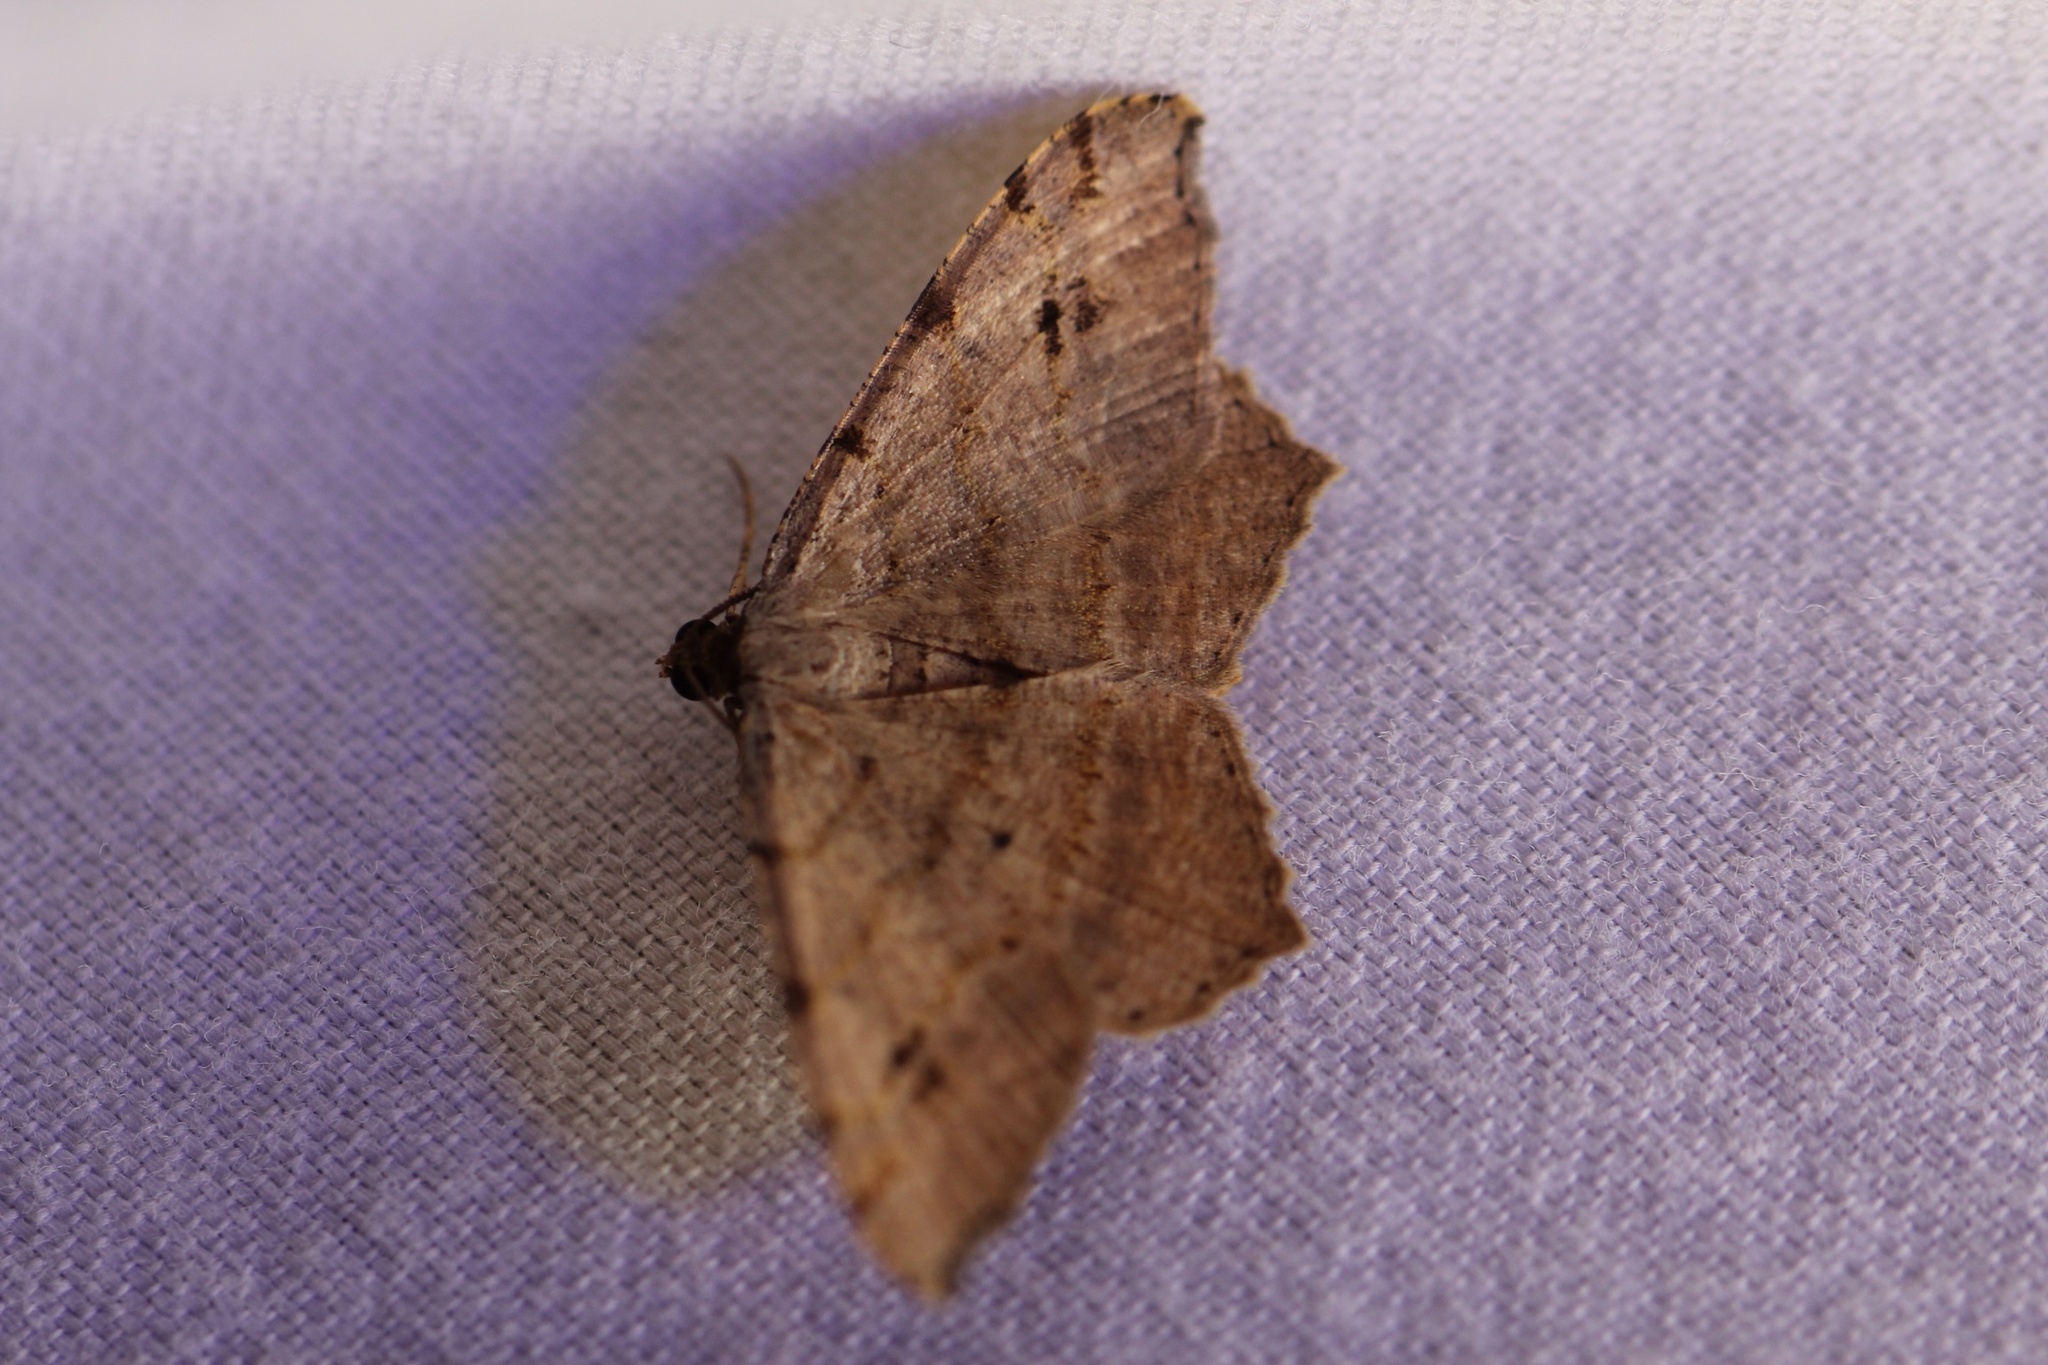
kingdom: Animalia
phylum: Arthropoda
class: Insecta
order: Lepidoptera
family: Geometridae
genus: Macaria
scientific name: Macaria bisignata
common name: Red-headed inchworm
